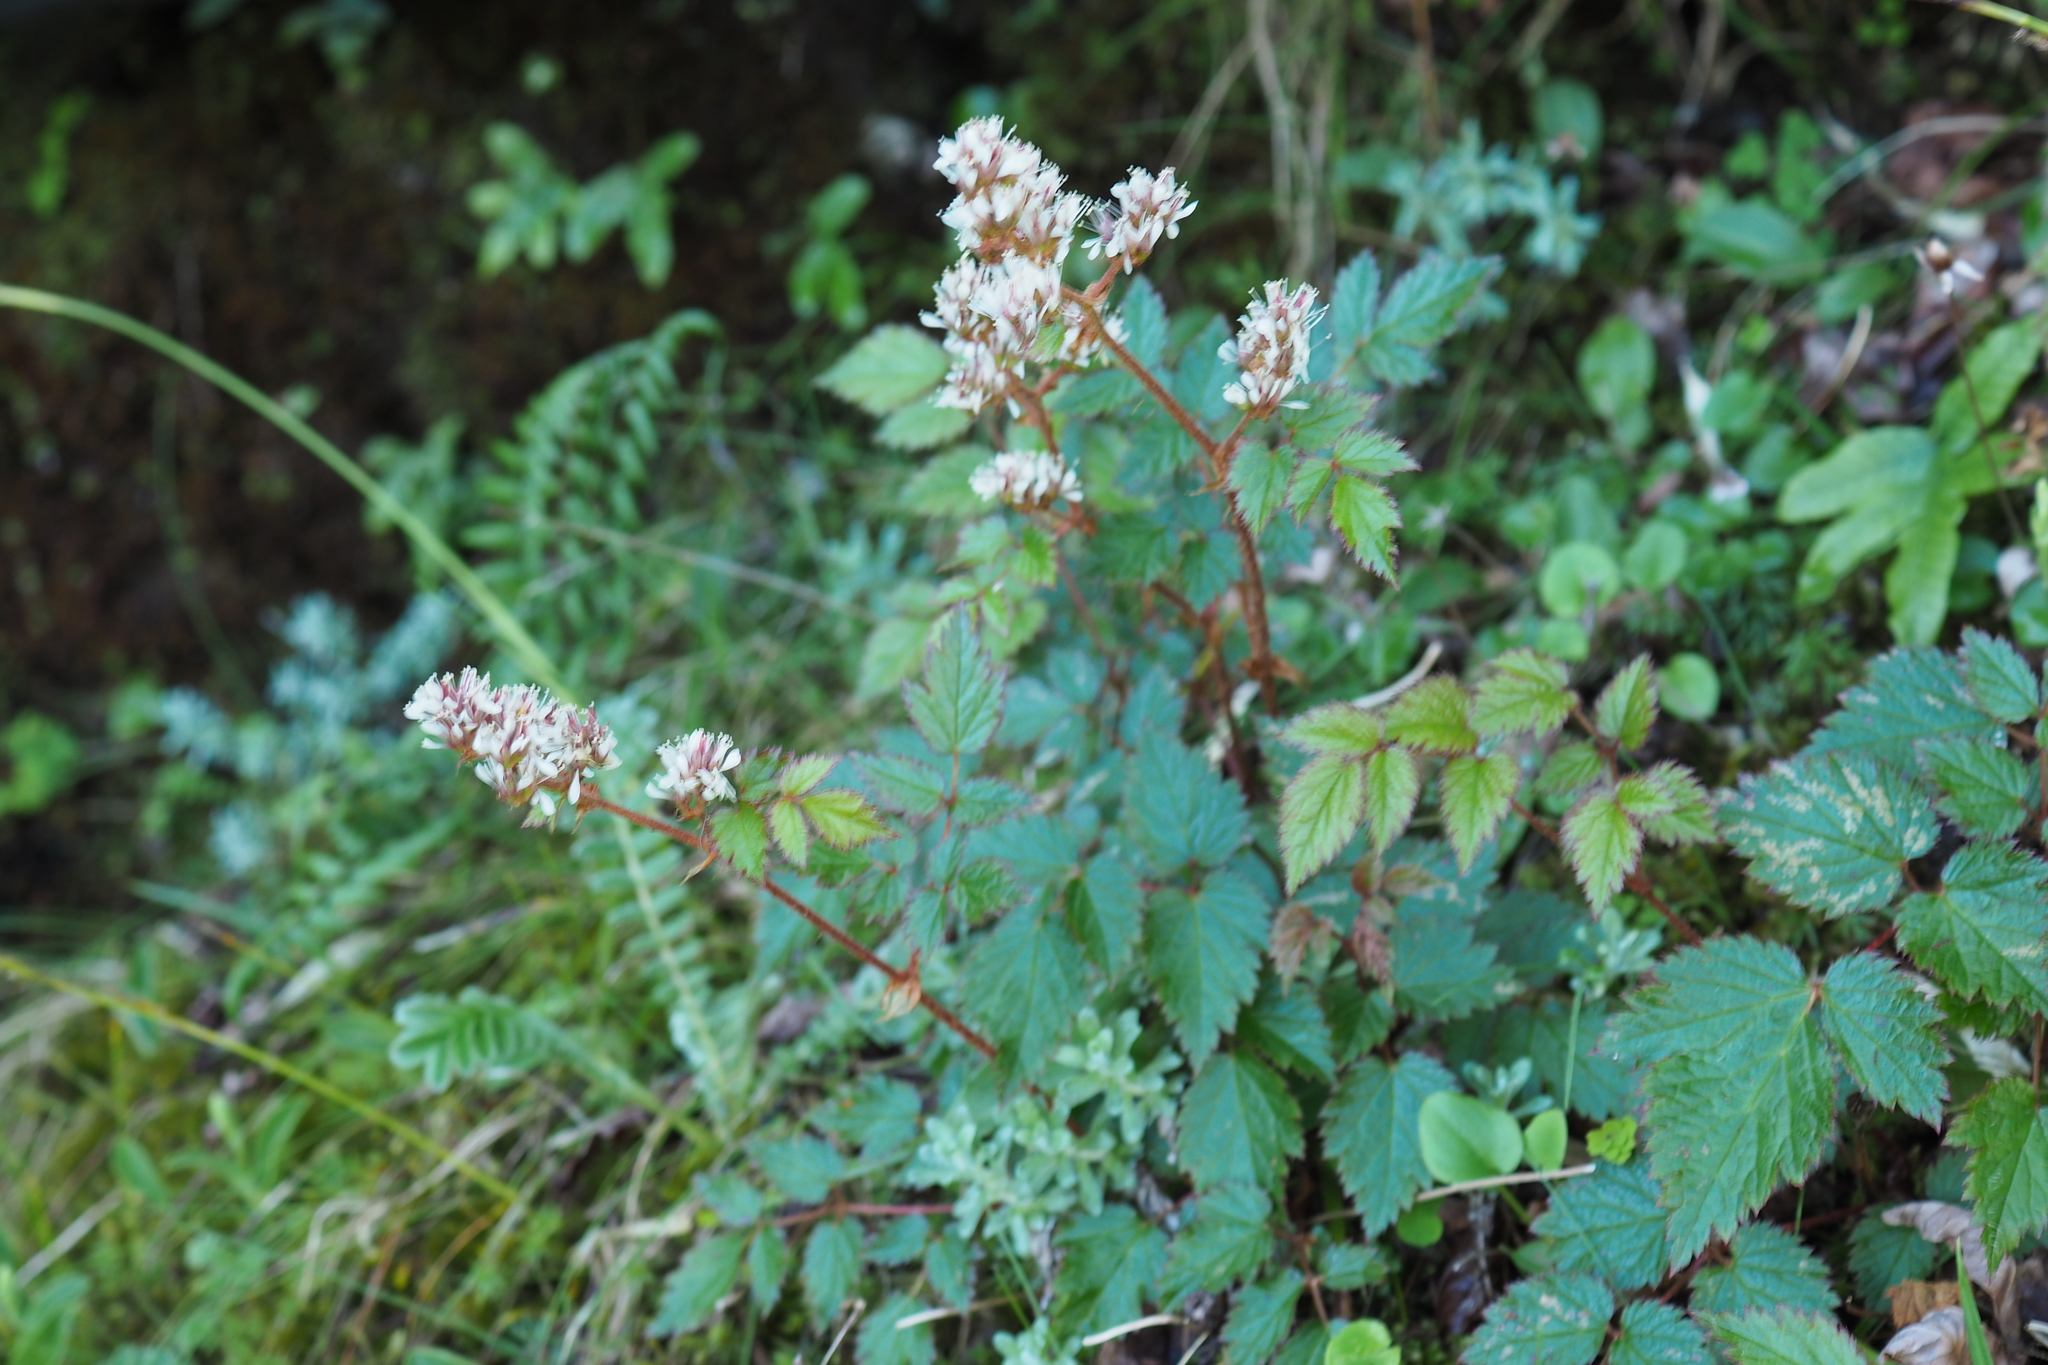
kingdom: Plantae
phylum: Tracheophyta
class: Magnoliopsida
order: Saxifragales
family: Saxifragaceae
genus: Astilbe
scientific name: Astilbe longicarpa
